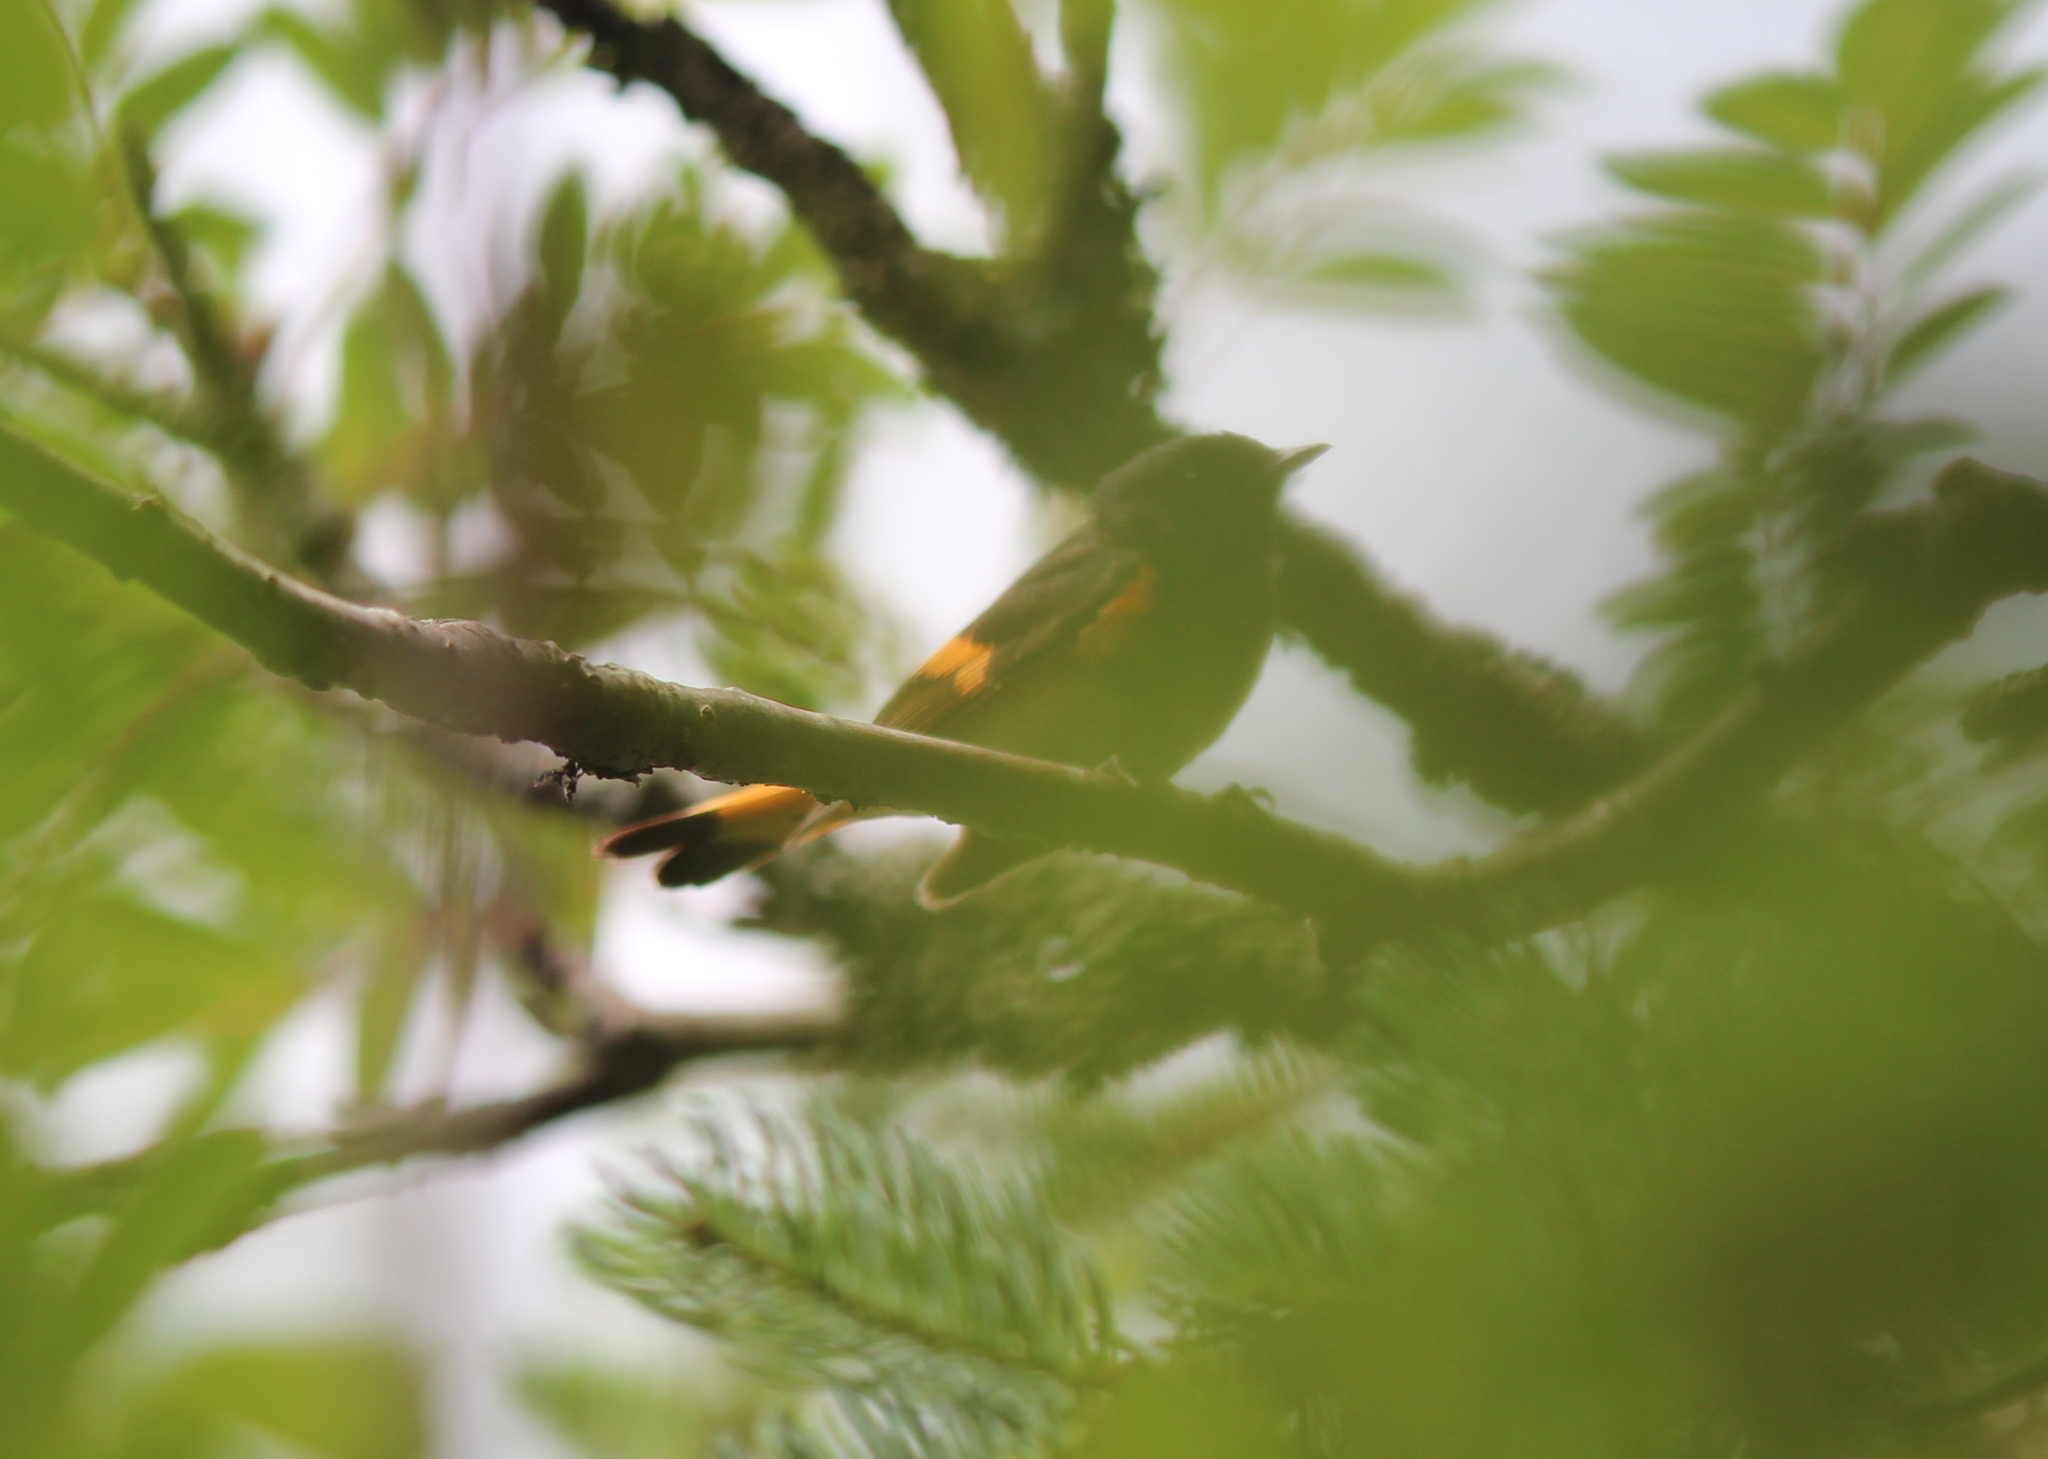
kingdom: Animalia
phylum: Chordata
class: Aves
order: Passeriformes
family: Parulidae
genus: Setophaga
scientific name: Setophaga ruticilla
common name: American redstart
